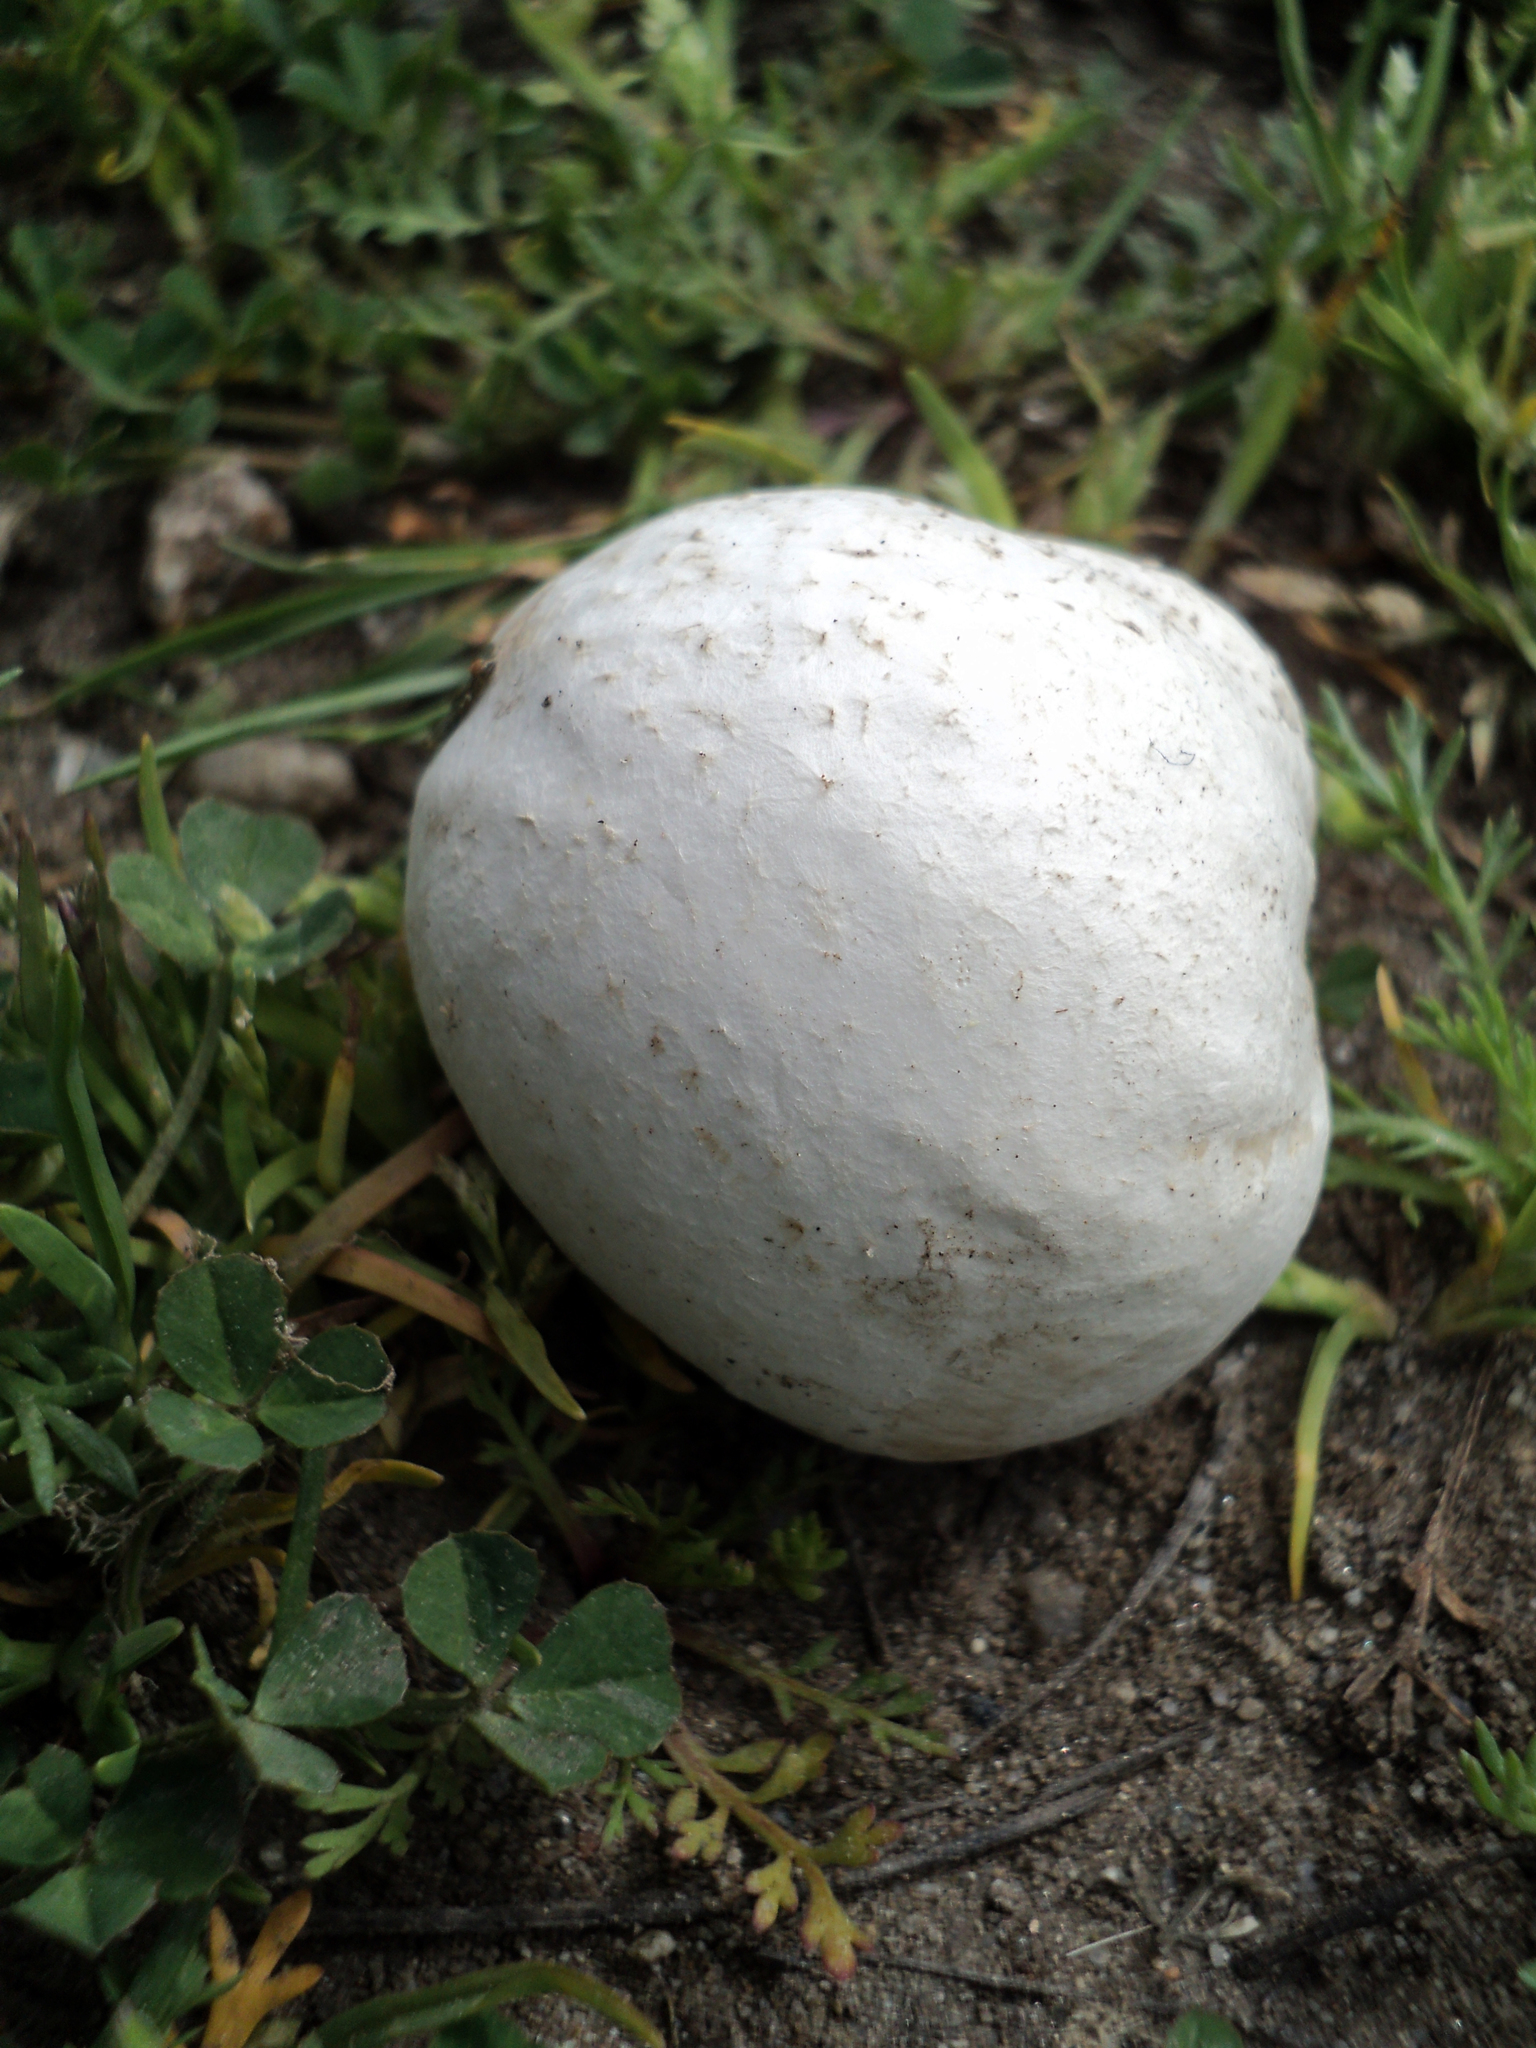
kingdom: Fungi
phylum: Basidiomycota
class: Agaricomycetes
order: Agaricales
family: Lycoperdaceae
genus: Bovista
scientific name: Bovista californica
